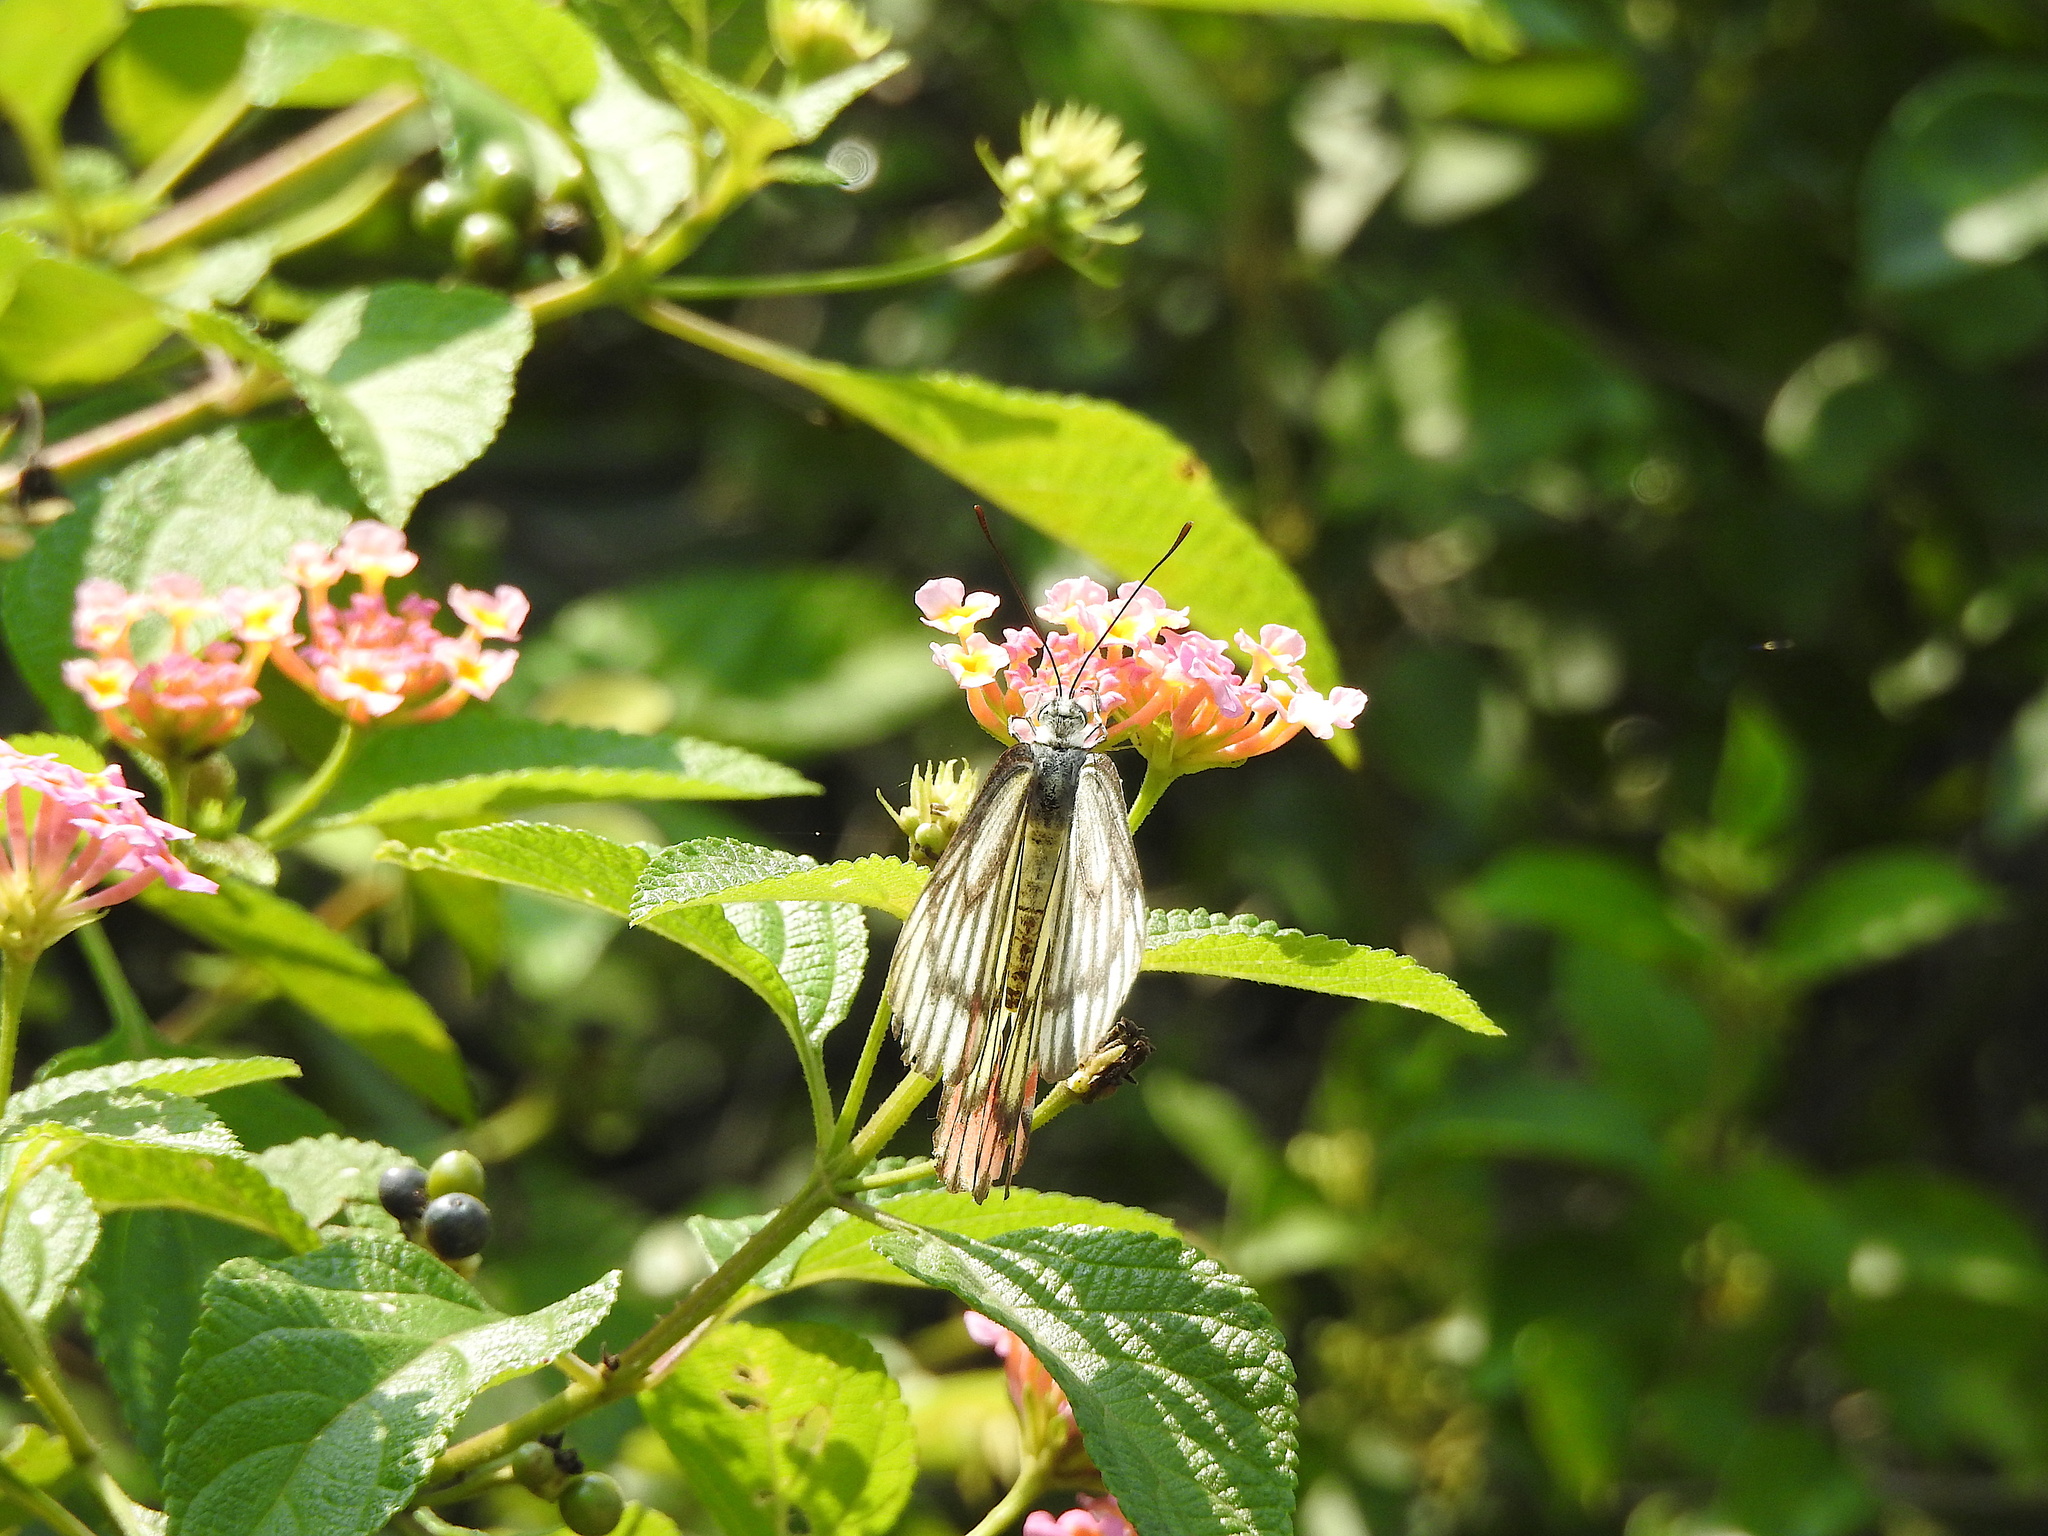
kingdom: Animalia
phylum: Arthropoda
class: Insecta
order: Lepidoptera
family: Pieridae
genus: Delias
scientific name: Delias eucharis
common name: Common jezebel
